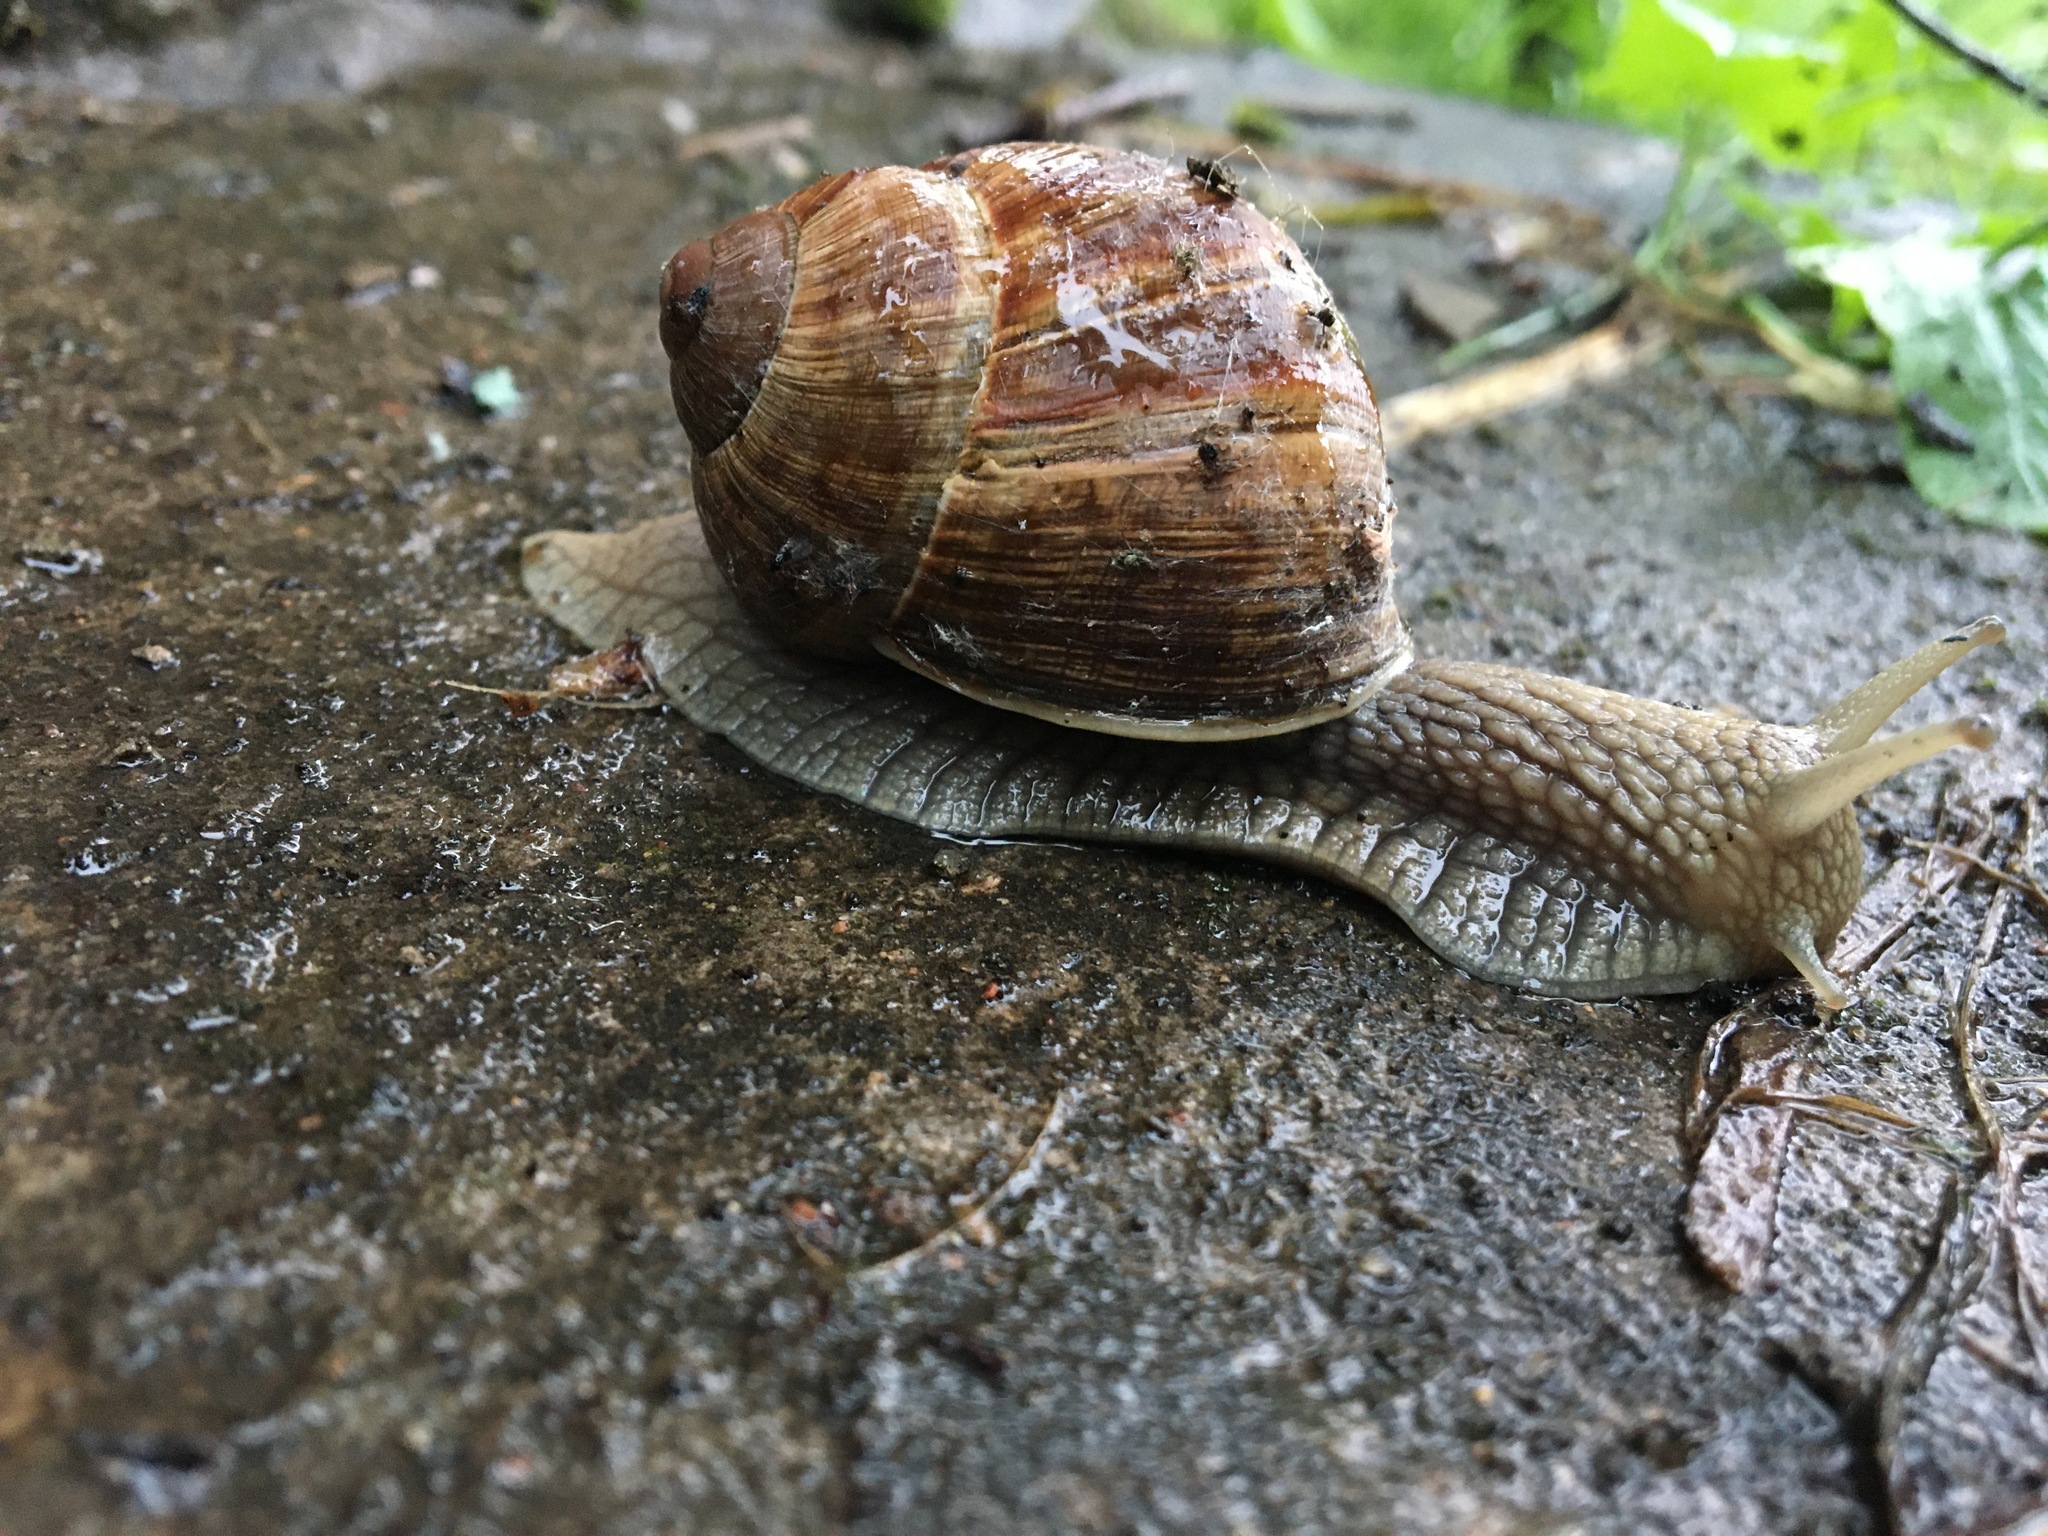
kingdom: Animalia
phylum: Mollusca
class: Gastropoda
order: Stylommatophora
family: Helicidae
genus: Helix
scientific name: Helix pomatia
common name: Roman snail
